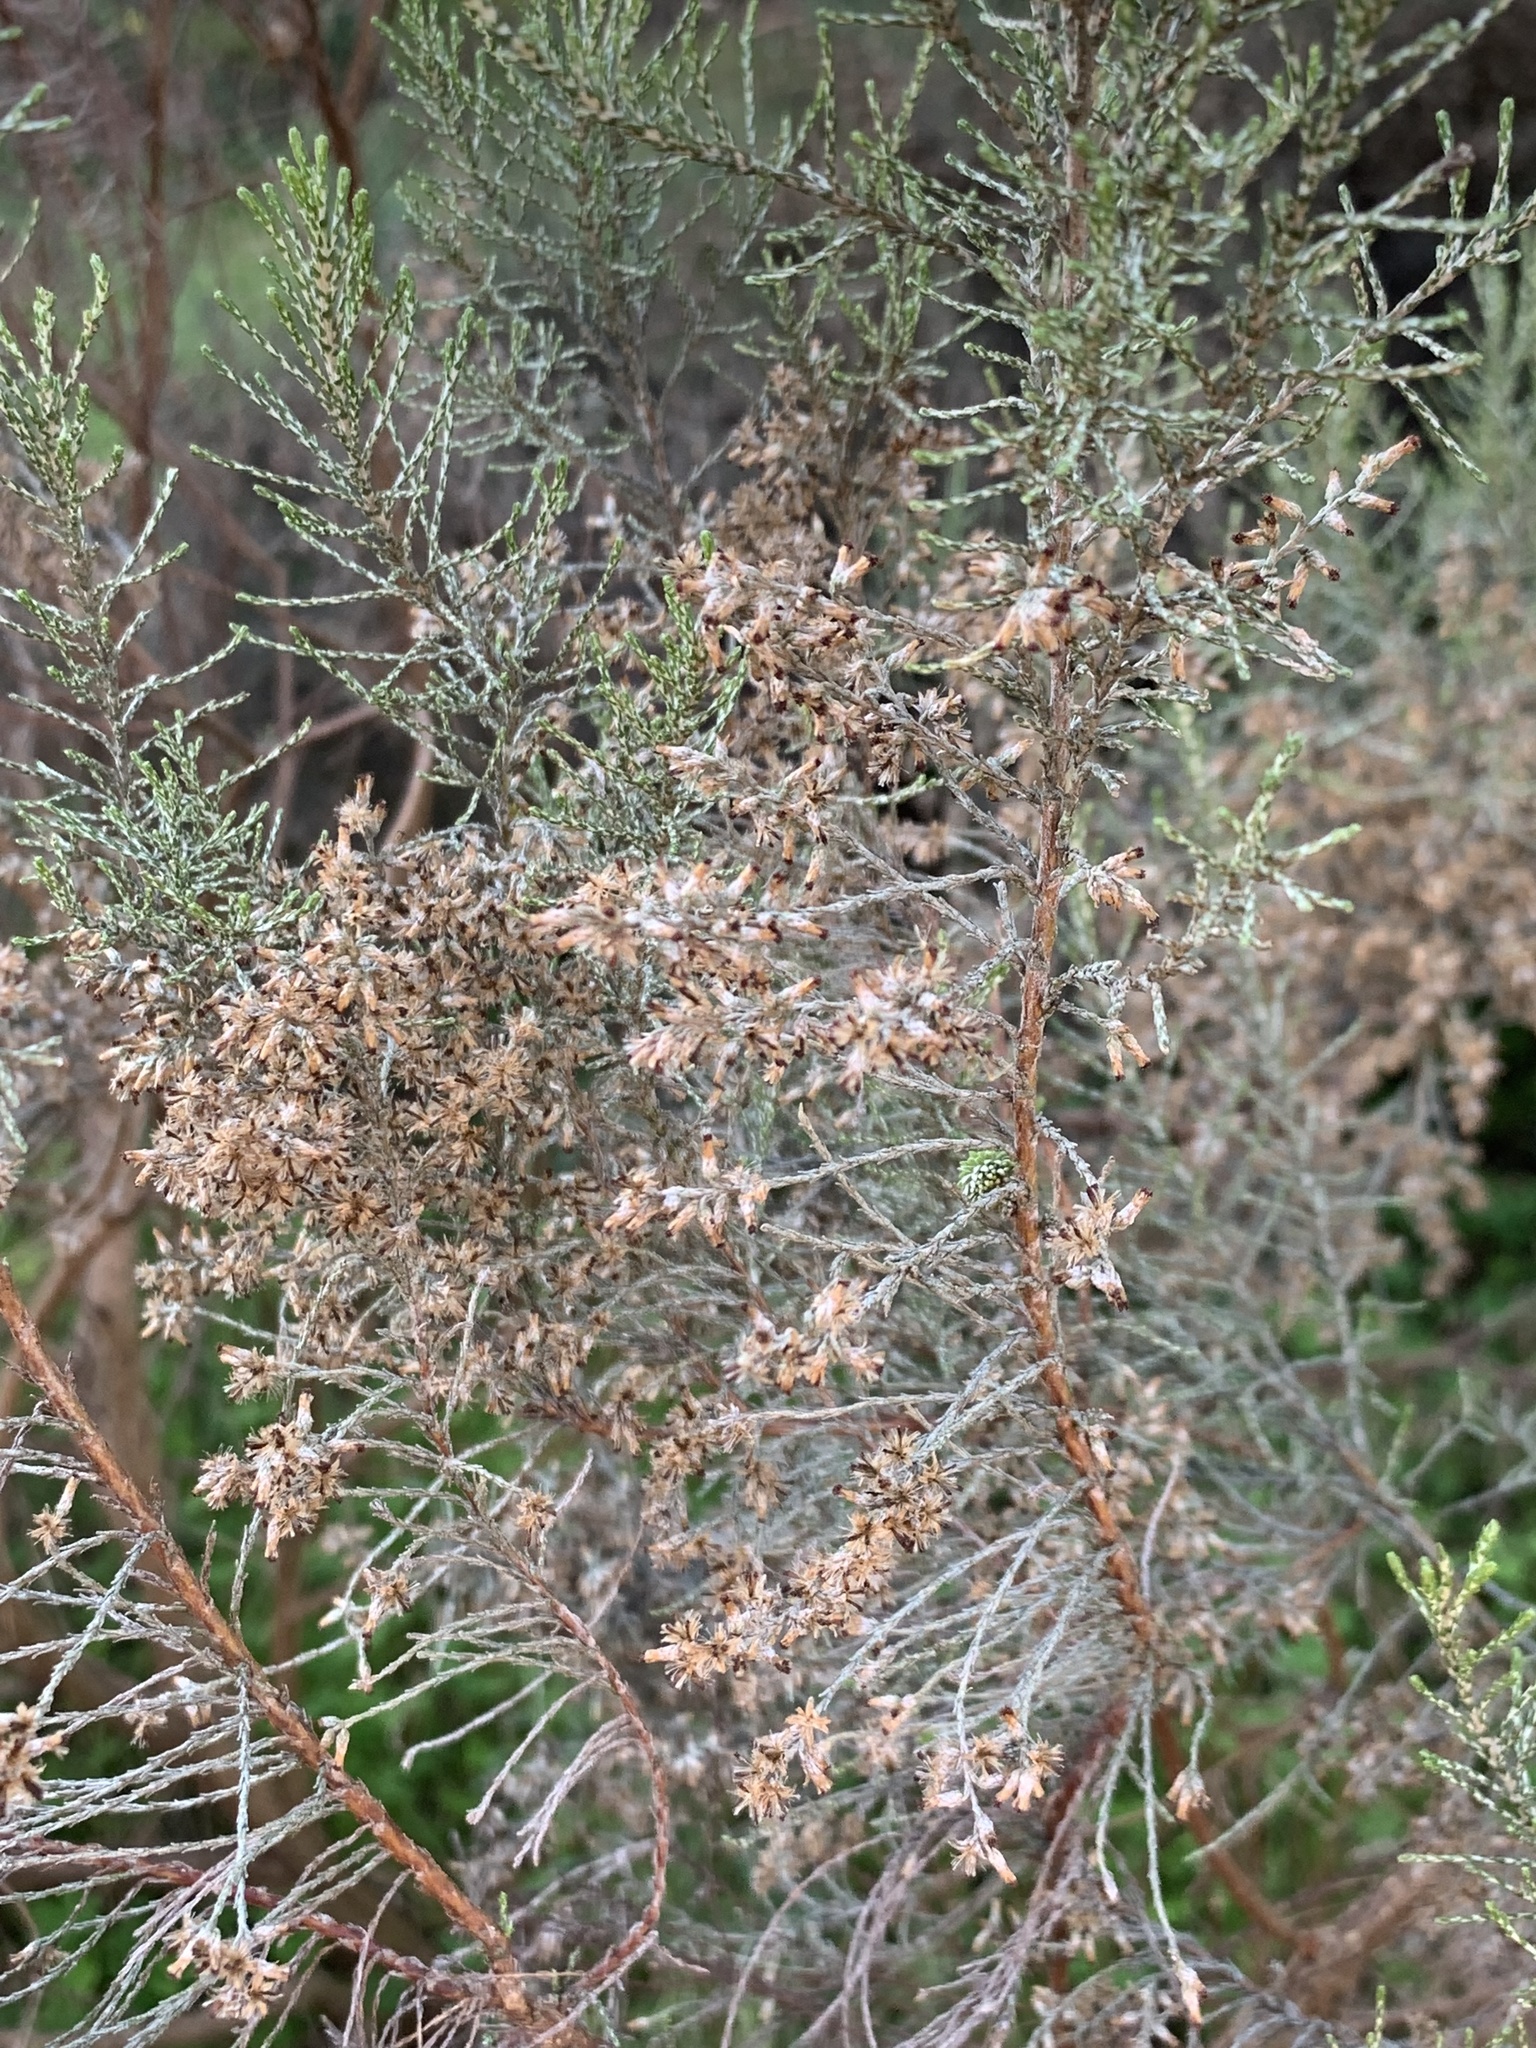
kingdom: Plantae
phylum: Tracheophyta
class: Magnoliopsida
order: Asterales
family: Asteraceae
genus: Dicerothamnus
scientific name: Dicerothamnus rhinocerotis
